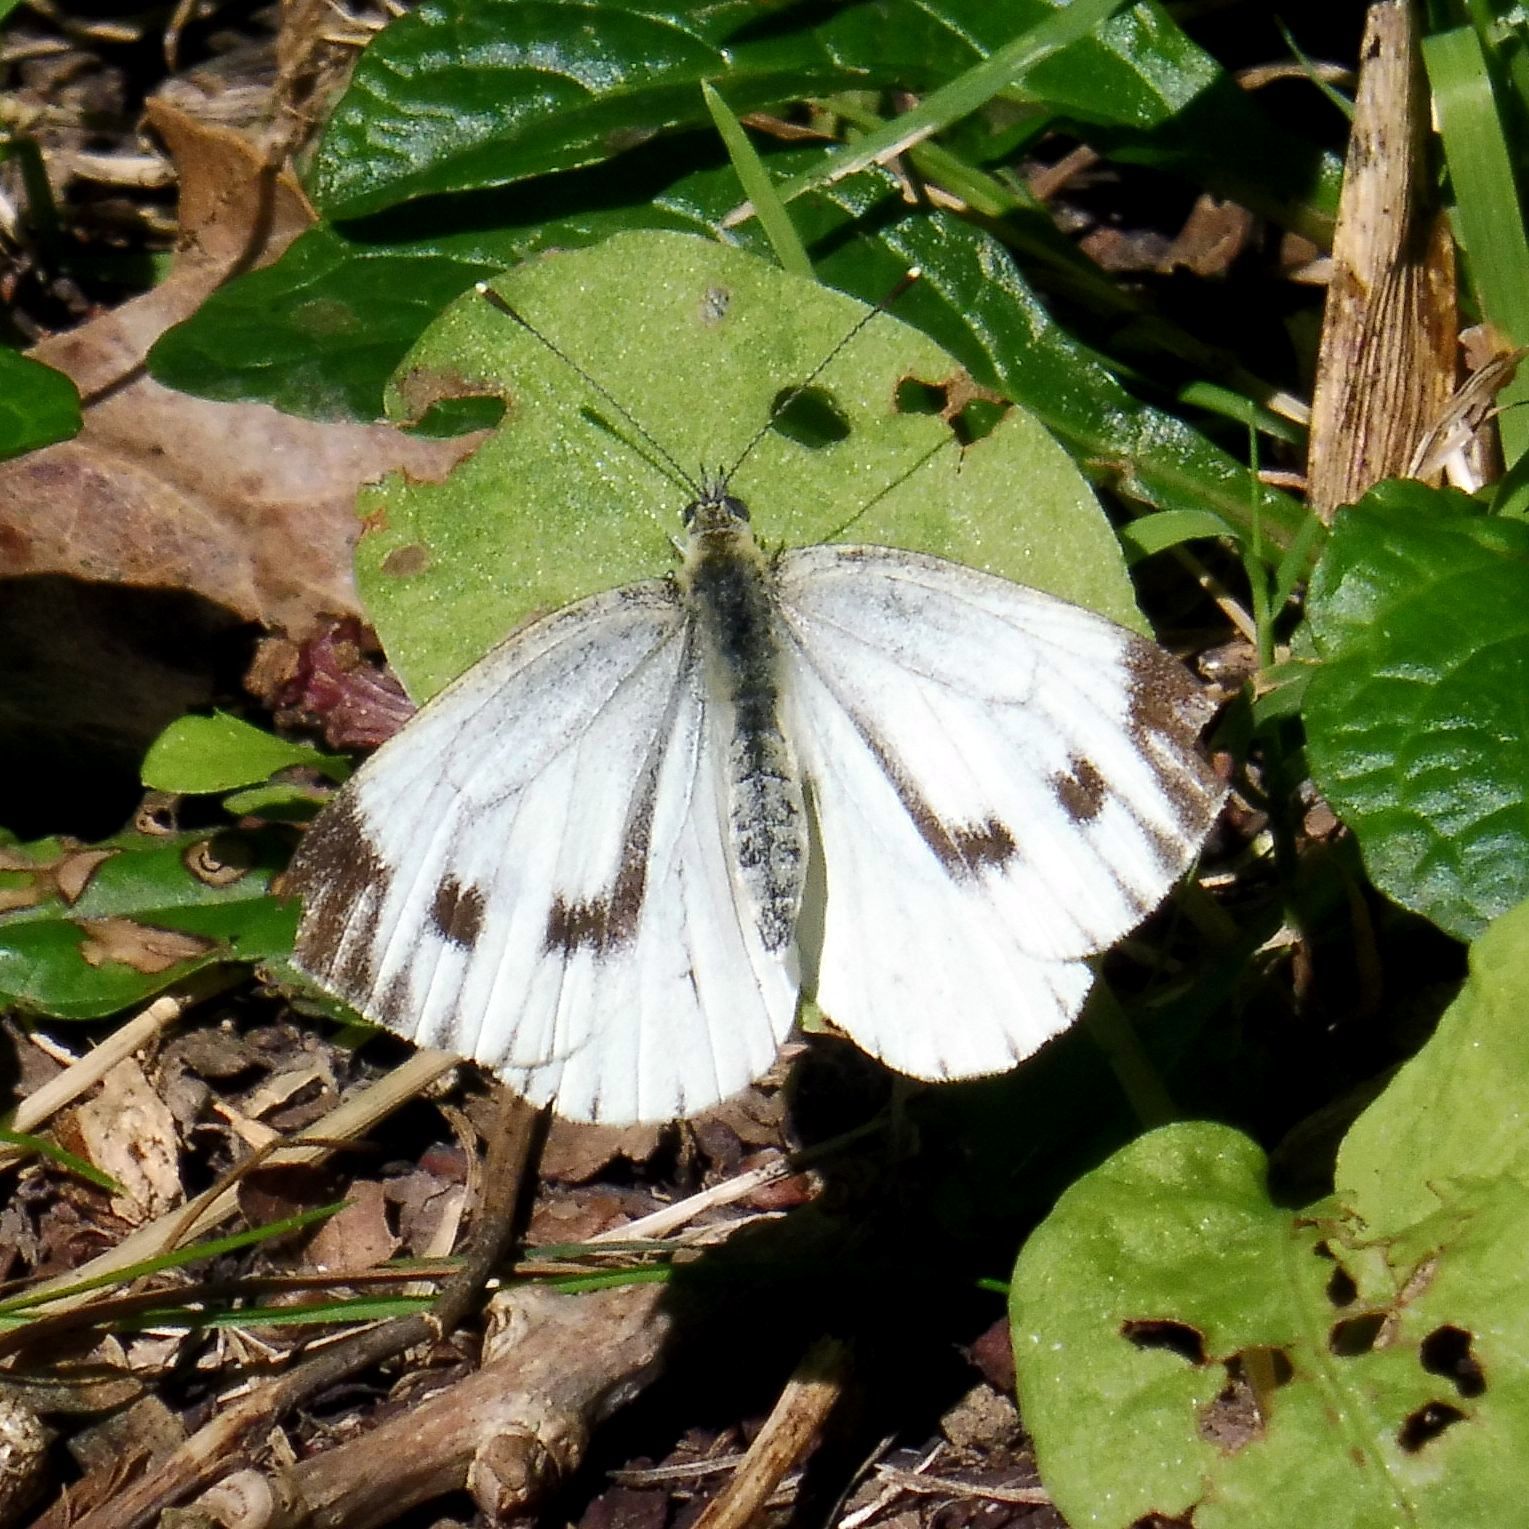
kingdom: Animalia
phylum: Arthropoda
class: Insecta
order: Lepidoptera
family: Pieridae
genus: Pieris
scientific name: Pieris napi
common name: Green-veined white
